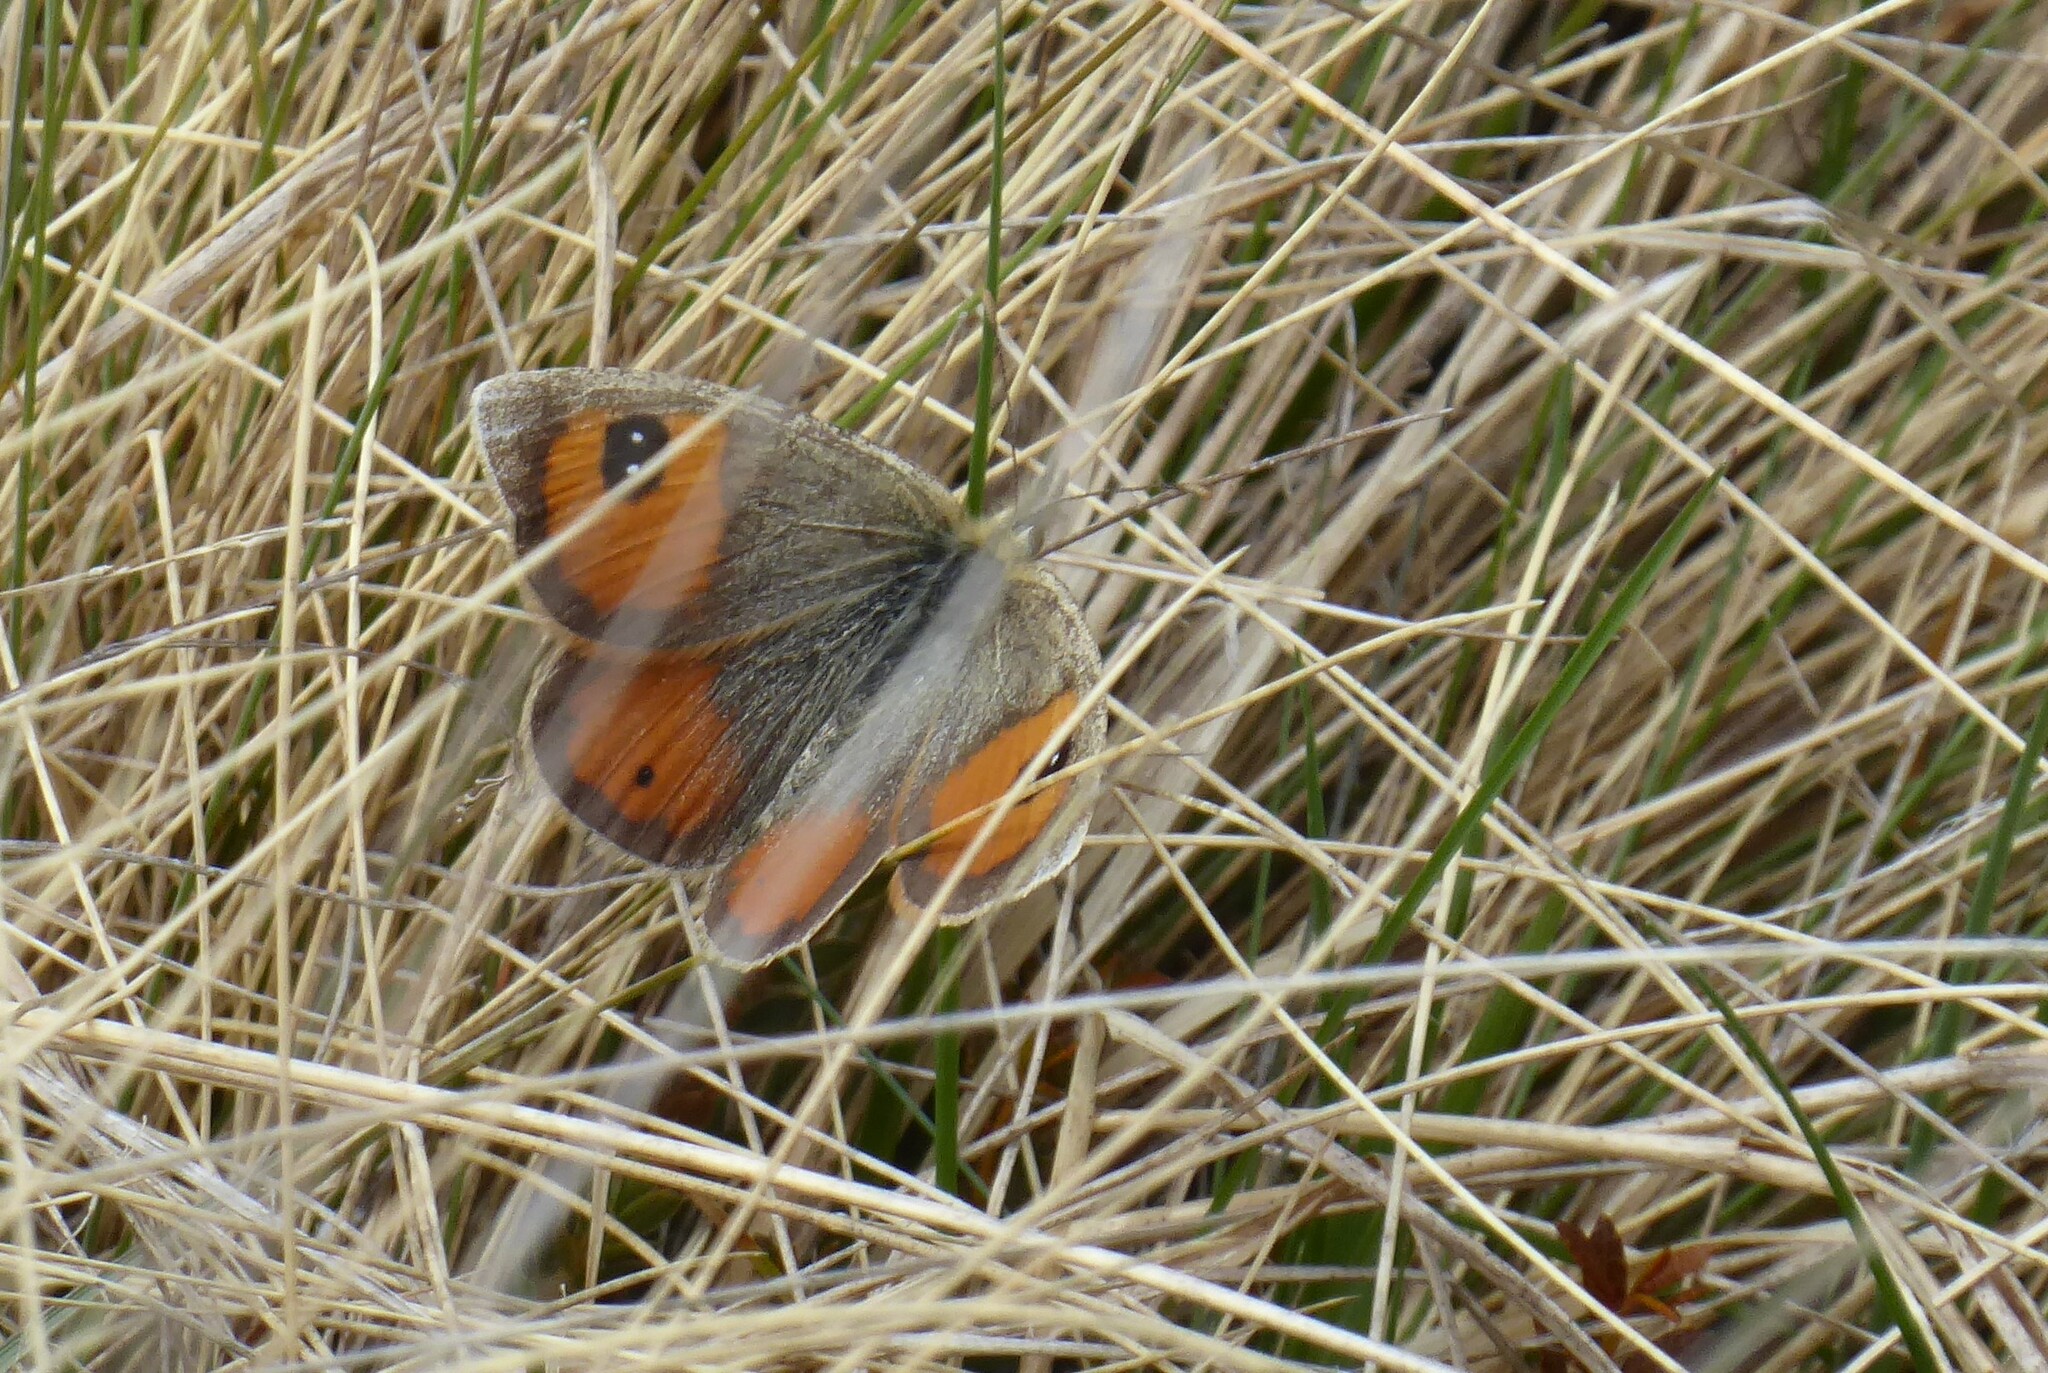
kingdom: Animalia
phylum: Arthropoda
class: Insecta
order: Lepidoptera
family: Nymphalidae
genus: Argyrophenga
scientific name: Argyrophenga antipodum
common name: Common tussock butterfly
